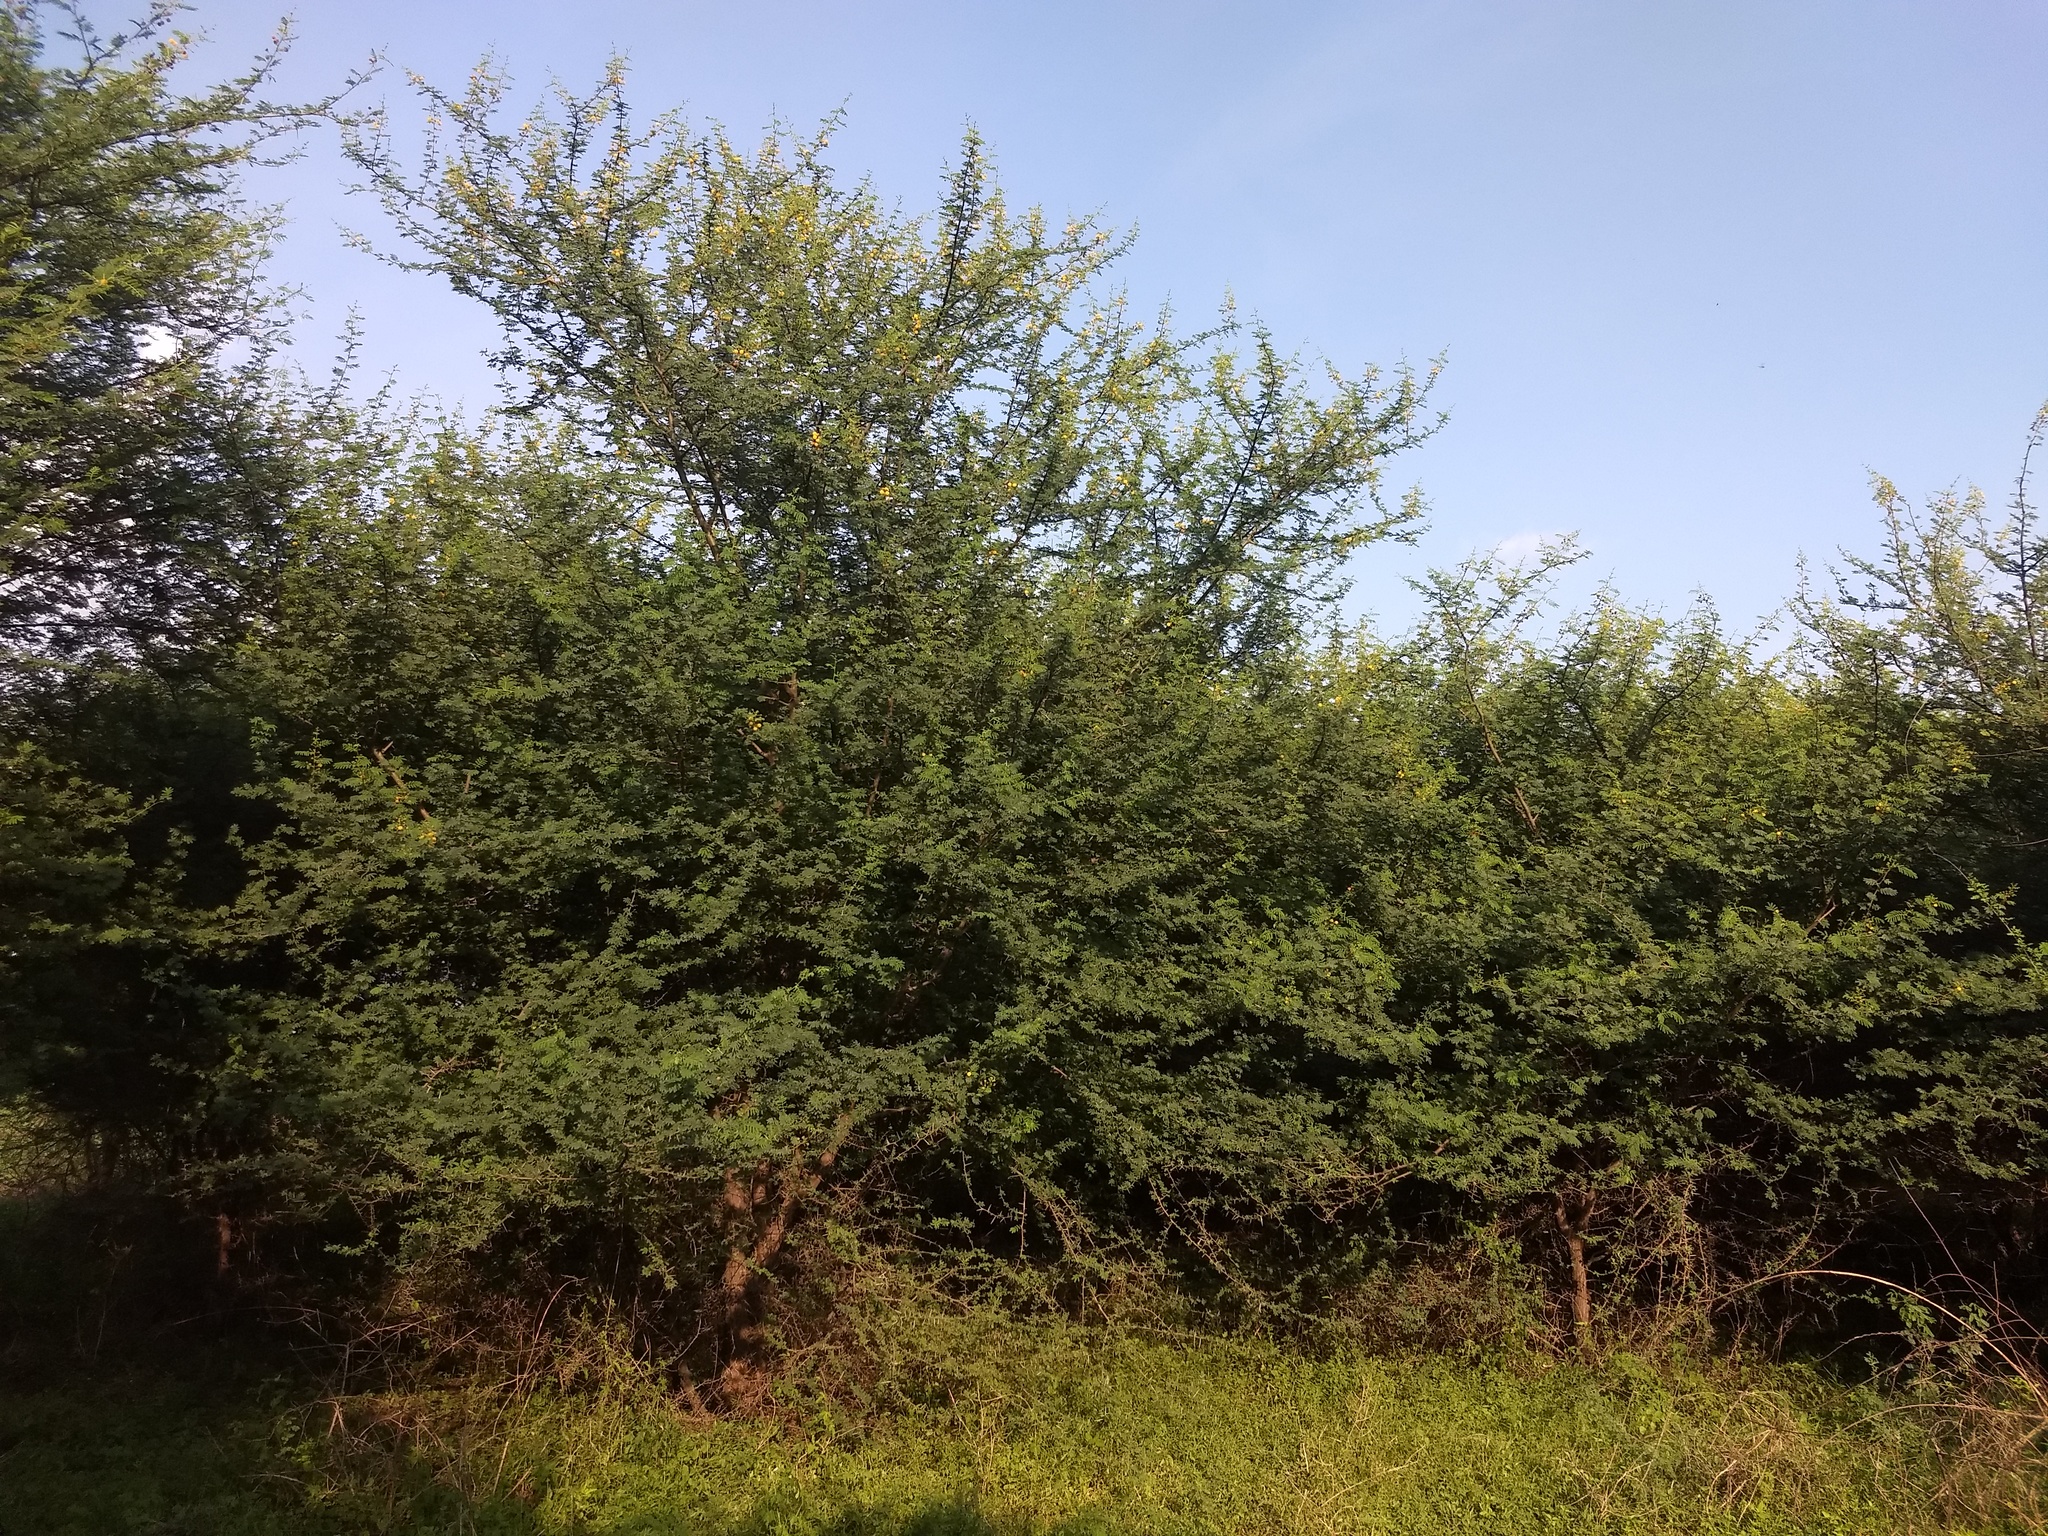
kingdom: Plantae
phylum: Tracheophyta
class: Magnoliopsida
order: Fabales
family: Fabaceae
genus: Vachellia
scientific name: Vachellia nilotica
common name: Arabic gumtree
